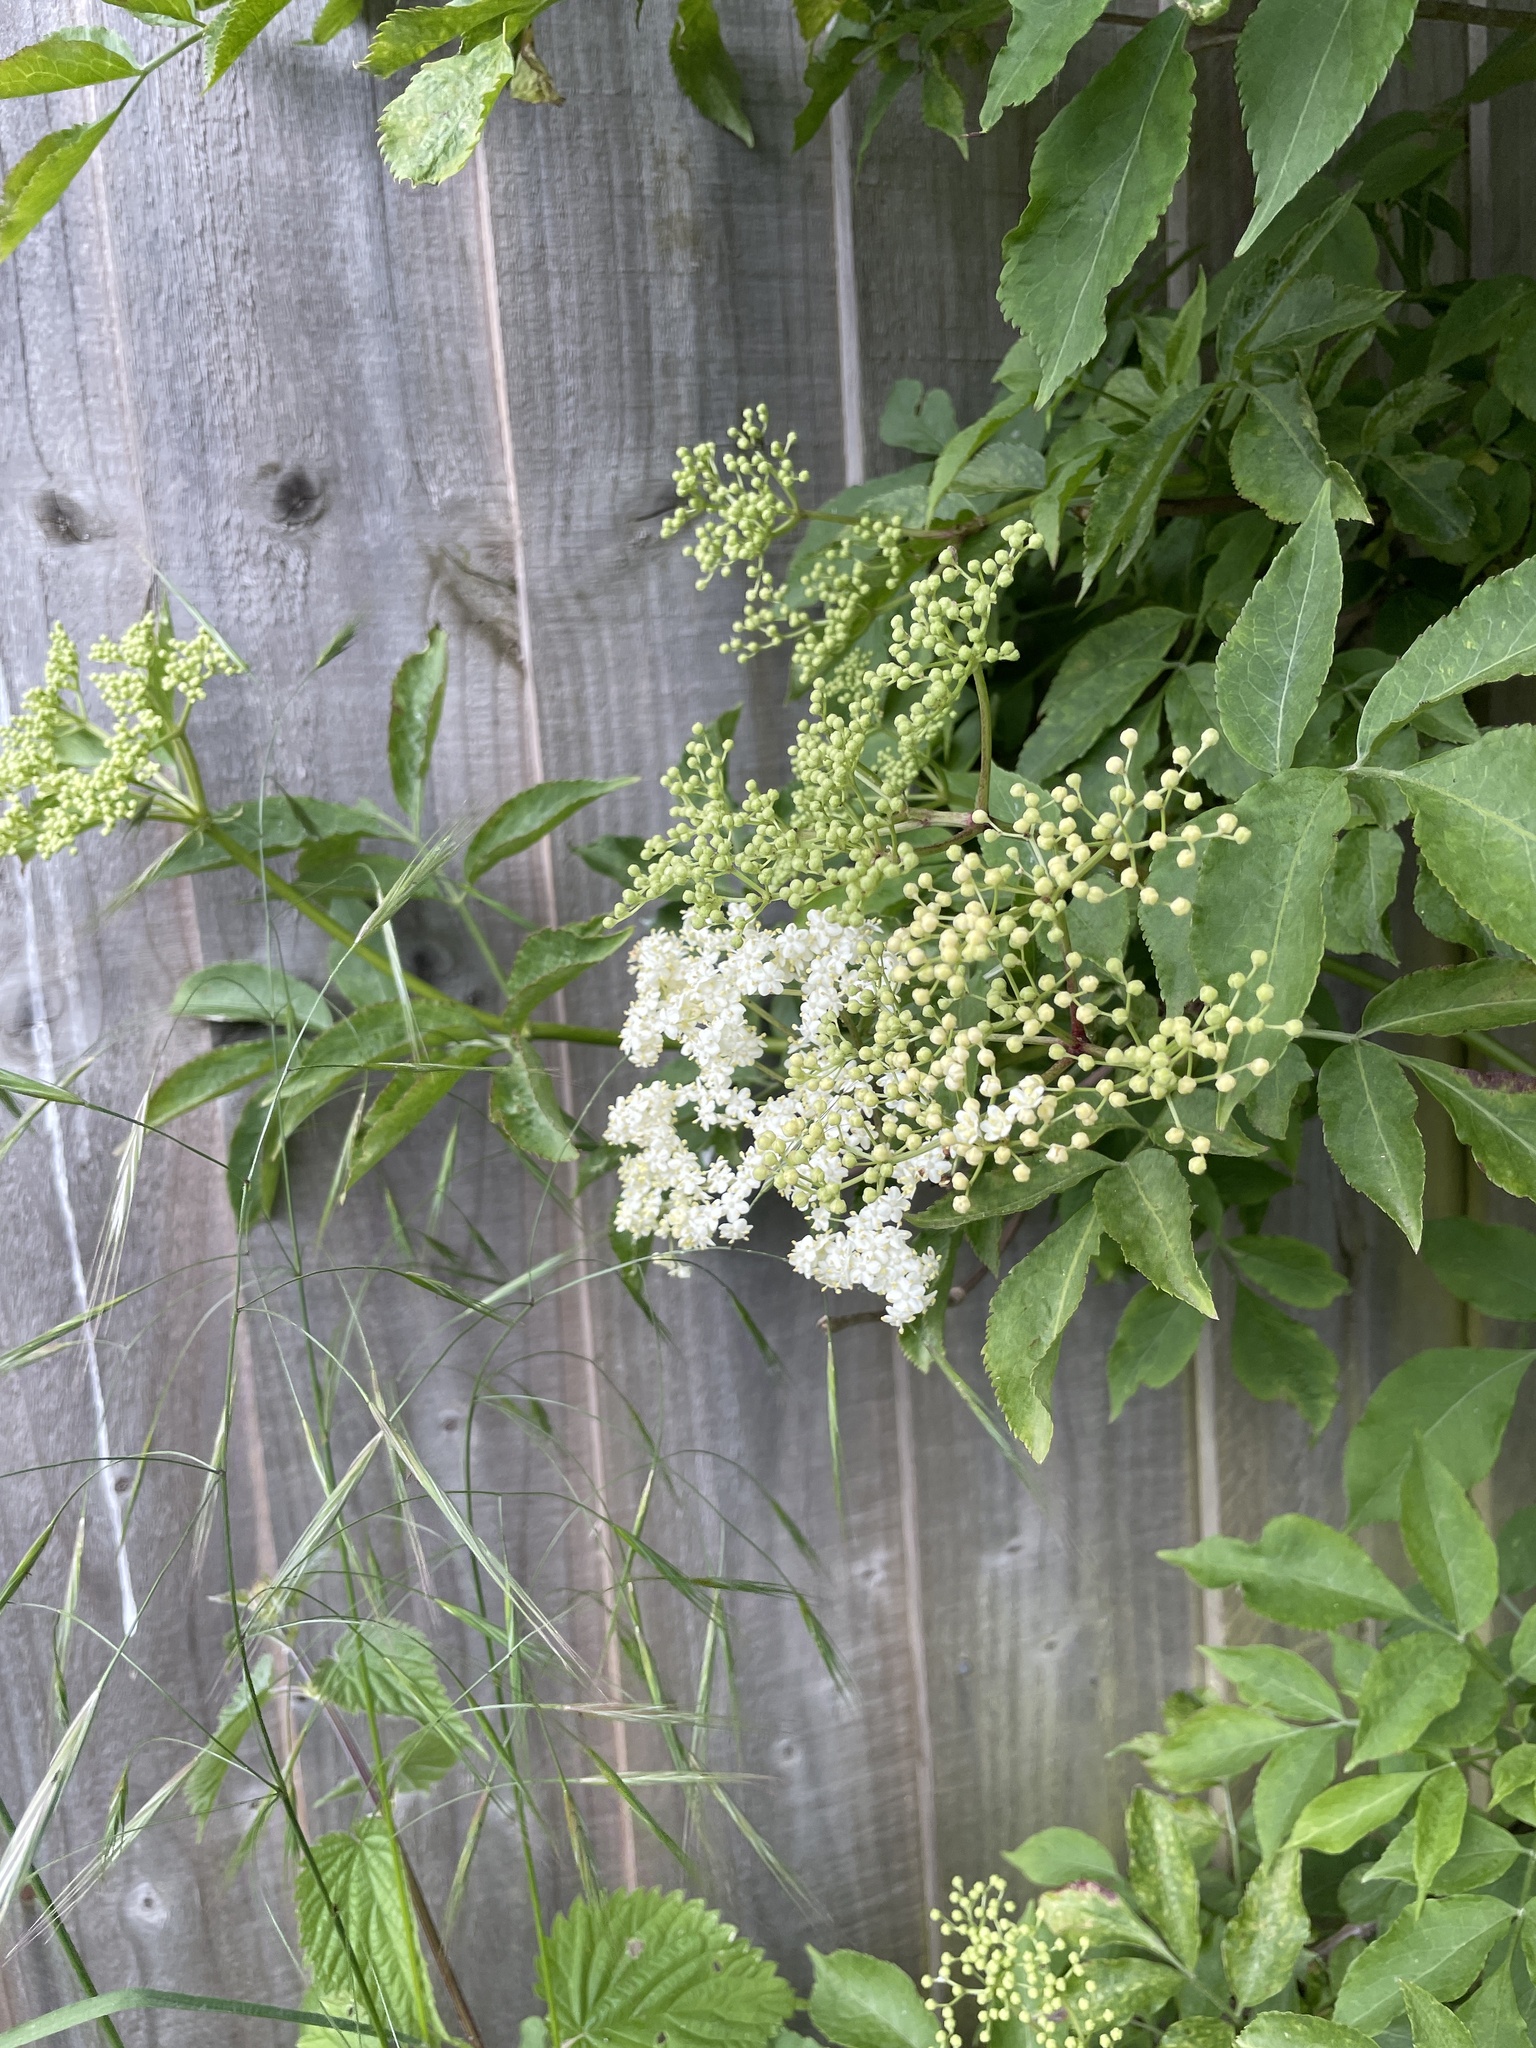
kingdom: Plantae
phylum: Tracheophyta
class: Magnoliopsida
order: Dipsacales
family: Viburnaceae
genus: Sambucus
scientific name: Sambucus nigra
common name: Elder
